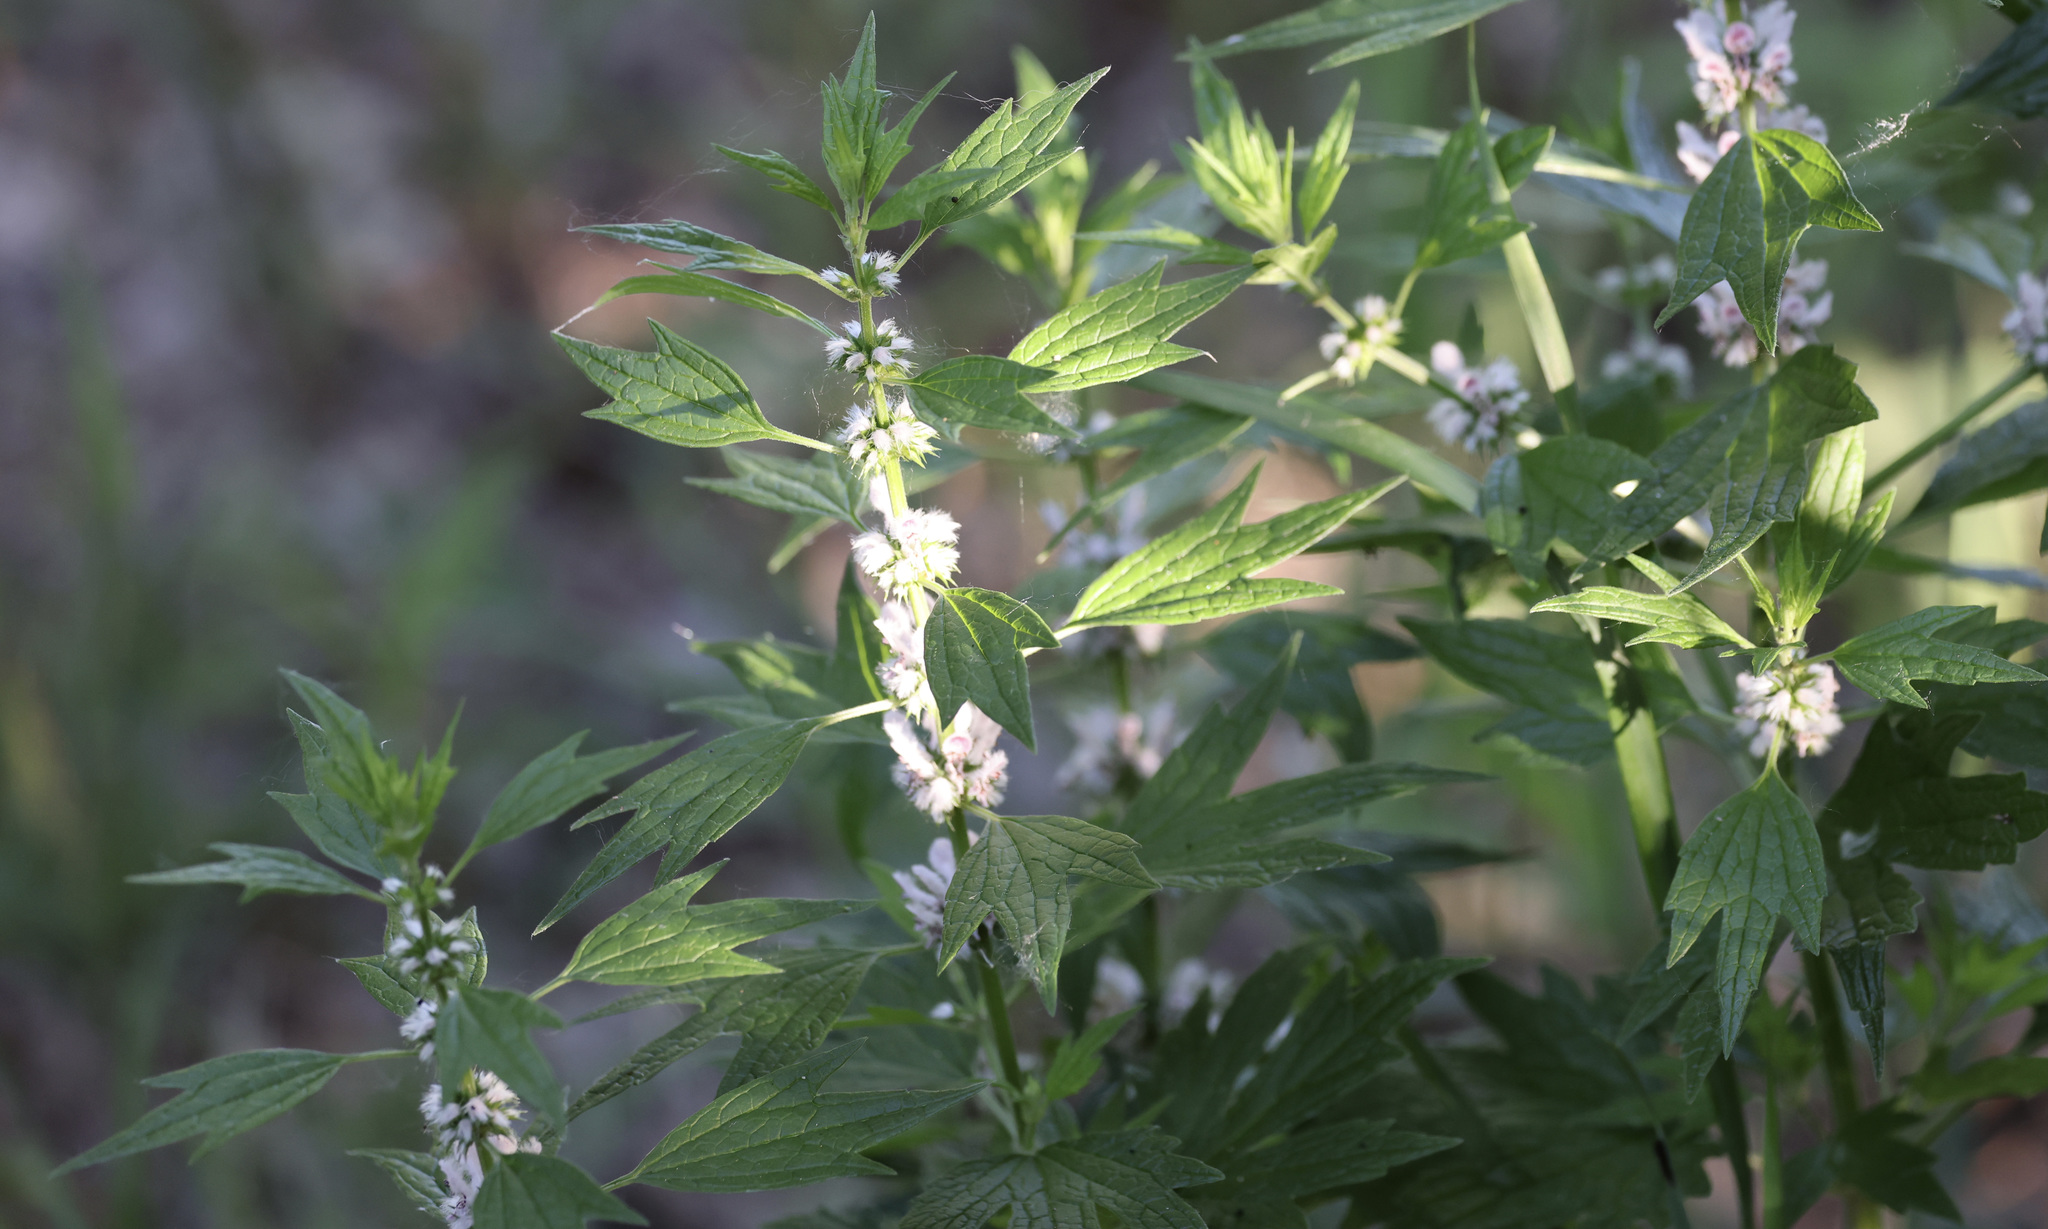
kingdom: Plantae
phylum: Tracheophyta
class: Magnoliopsida
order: Lamiales
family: Lamiaceae
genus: Leonurus
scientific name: Leonurus cardiaca
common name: Motherwort
